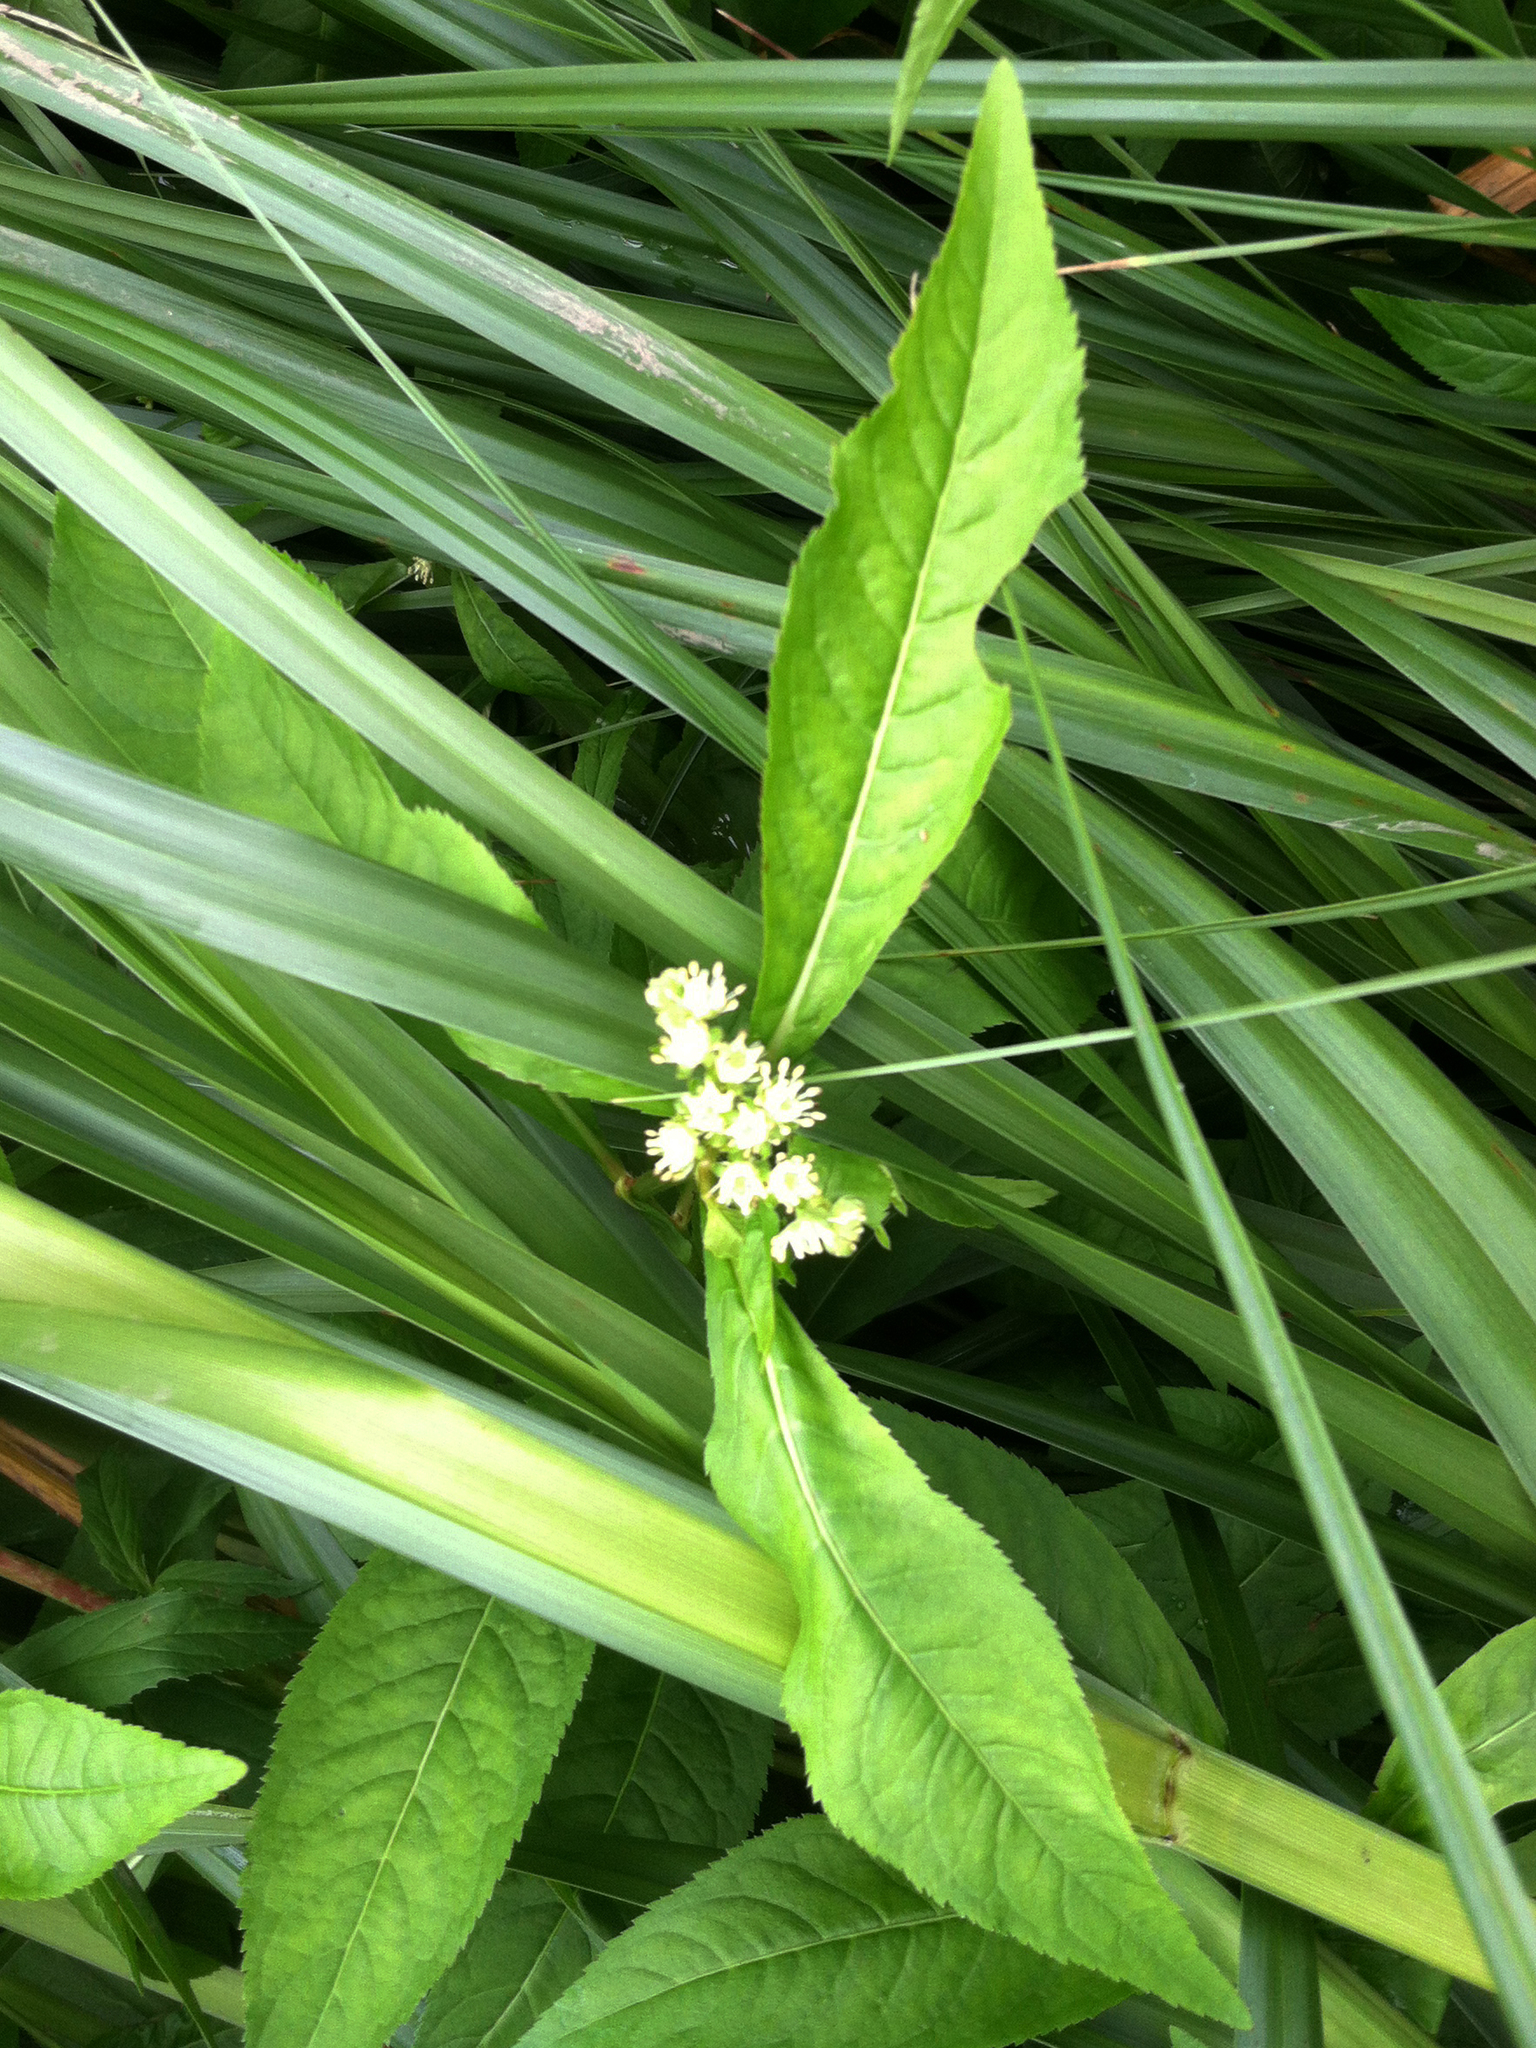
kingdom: Plantae
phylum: Tracheophyta
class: Magnoliopsida
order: Saxifragales
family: Penthoraceae
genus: Penthorum
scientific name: Penthorum sedoides
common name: Ditch stonecrop
